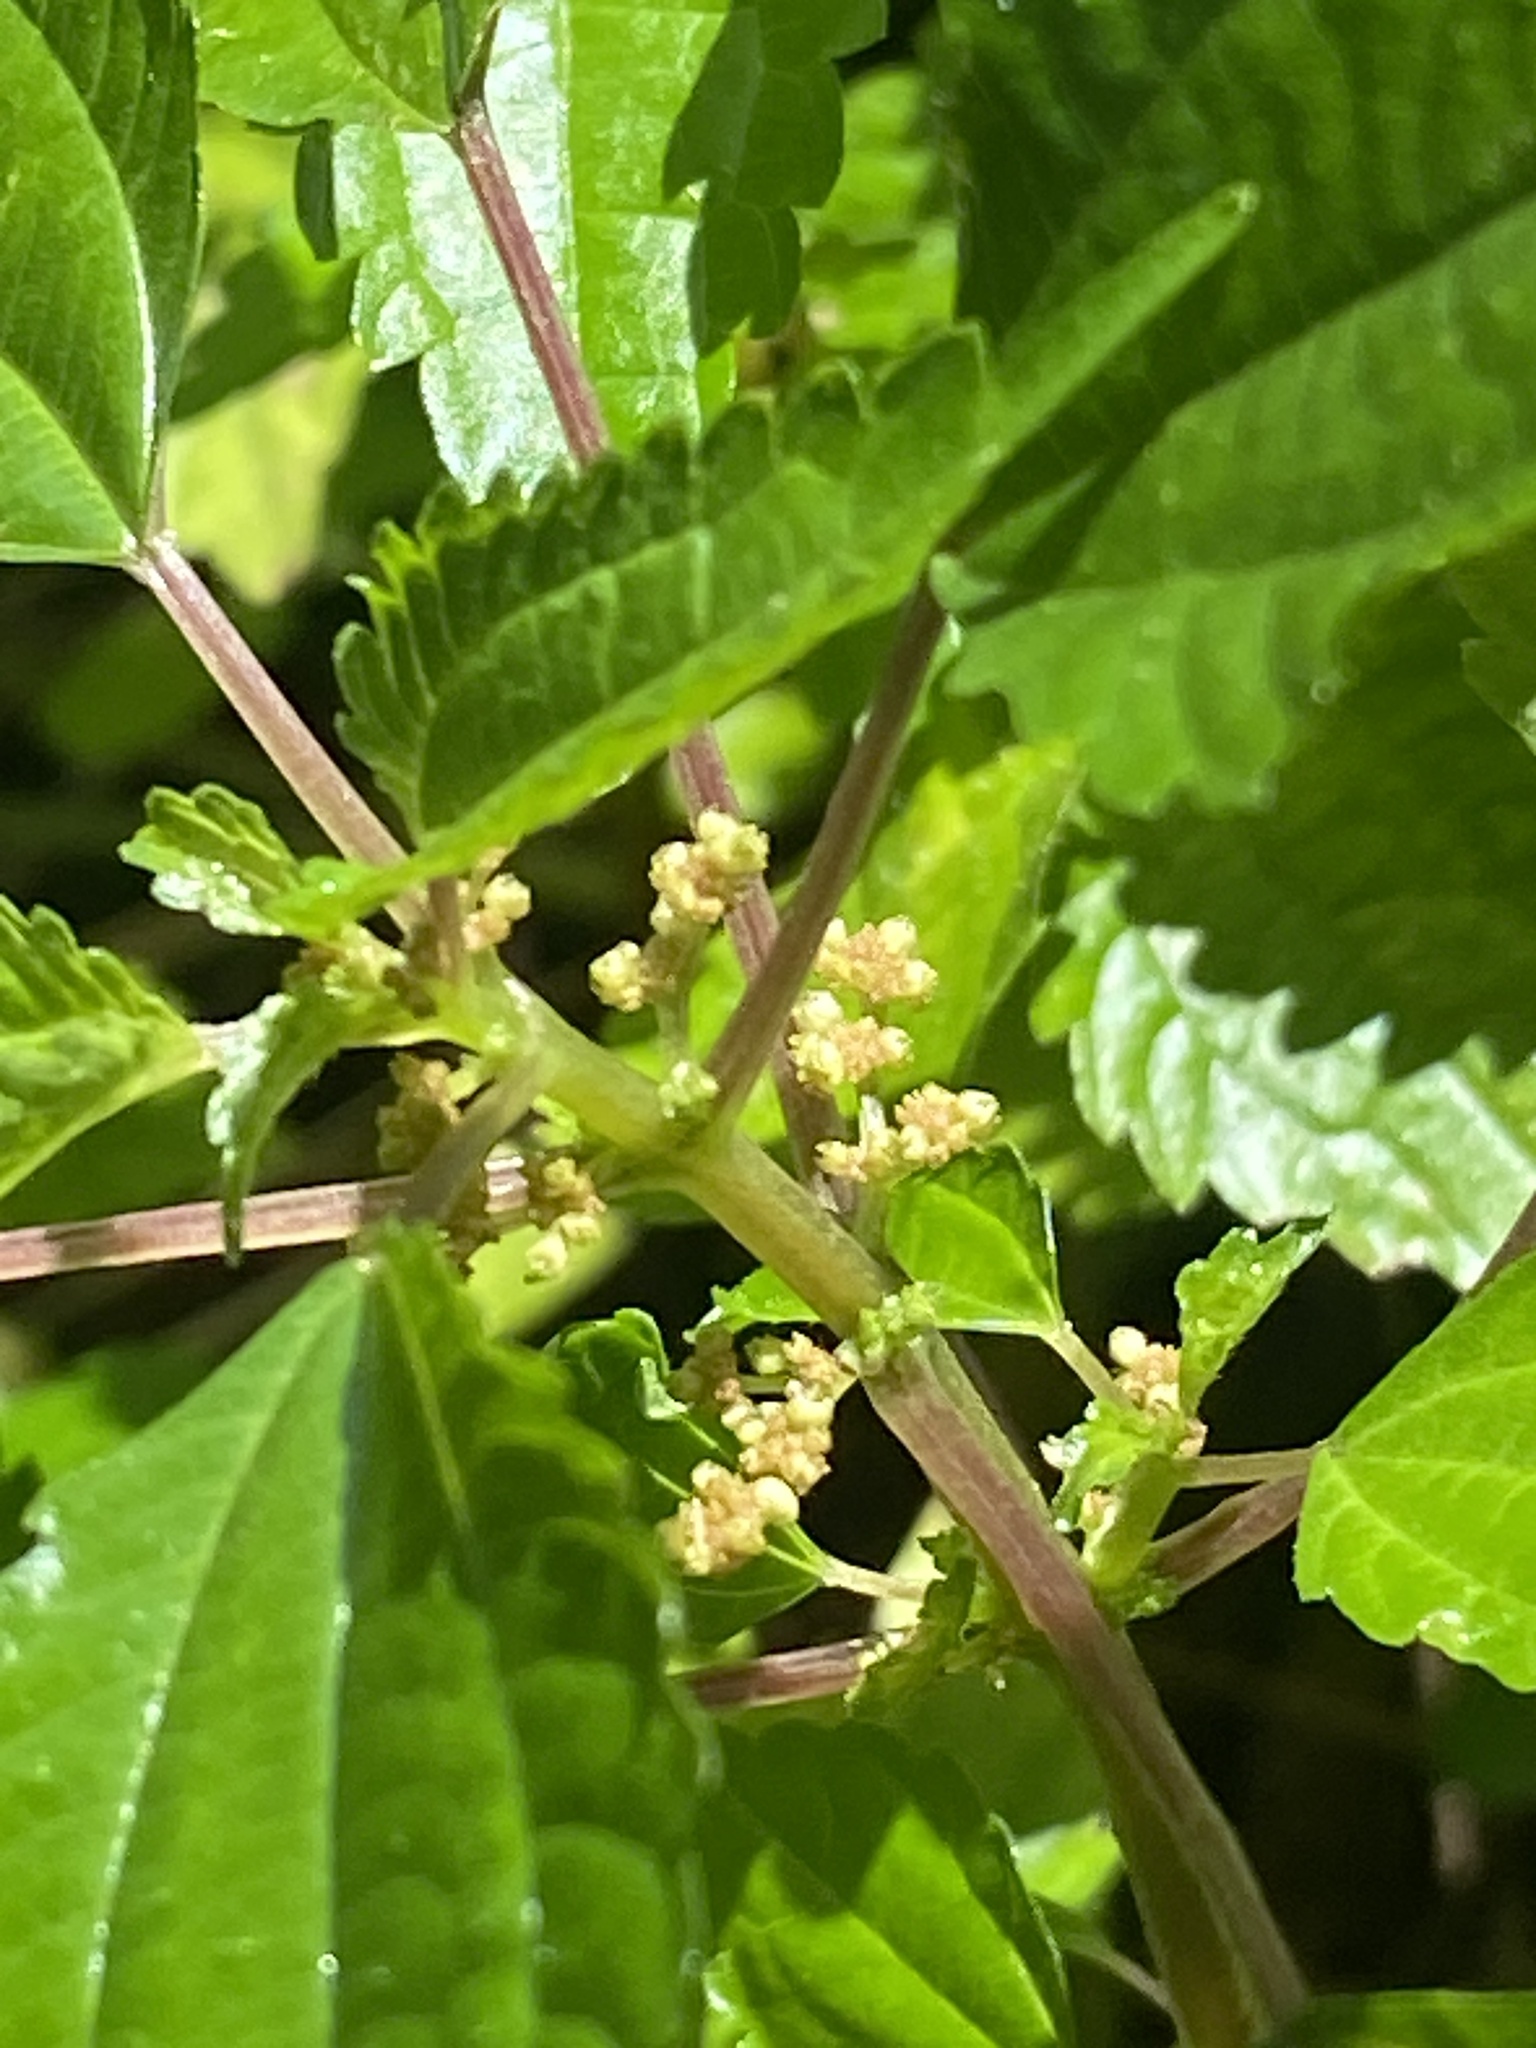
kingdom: Plantae
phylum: Tracheophyta
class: Magnoliopsida
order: Rosales
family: Urticaceae
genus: Pilea
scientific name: Pilea pumila
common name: Clearweed
